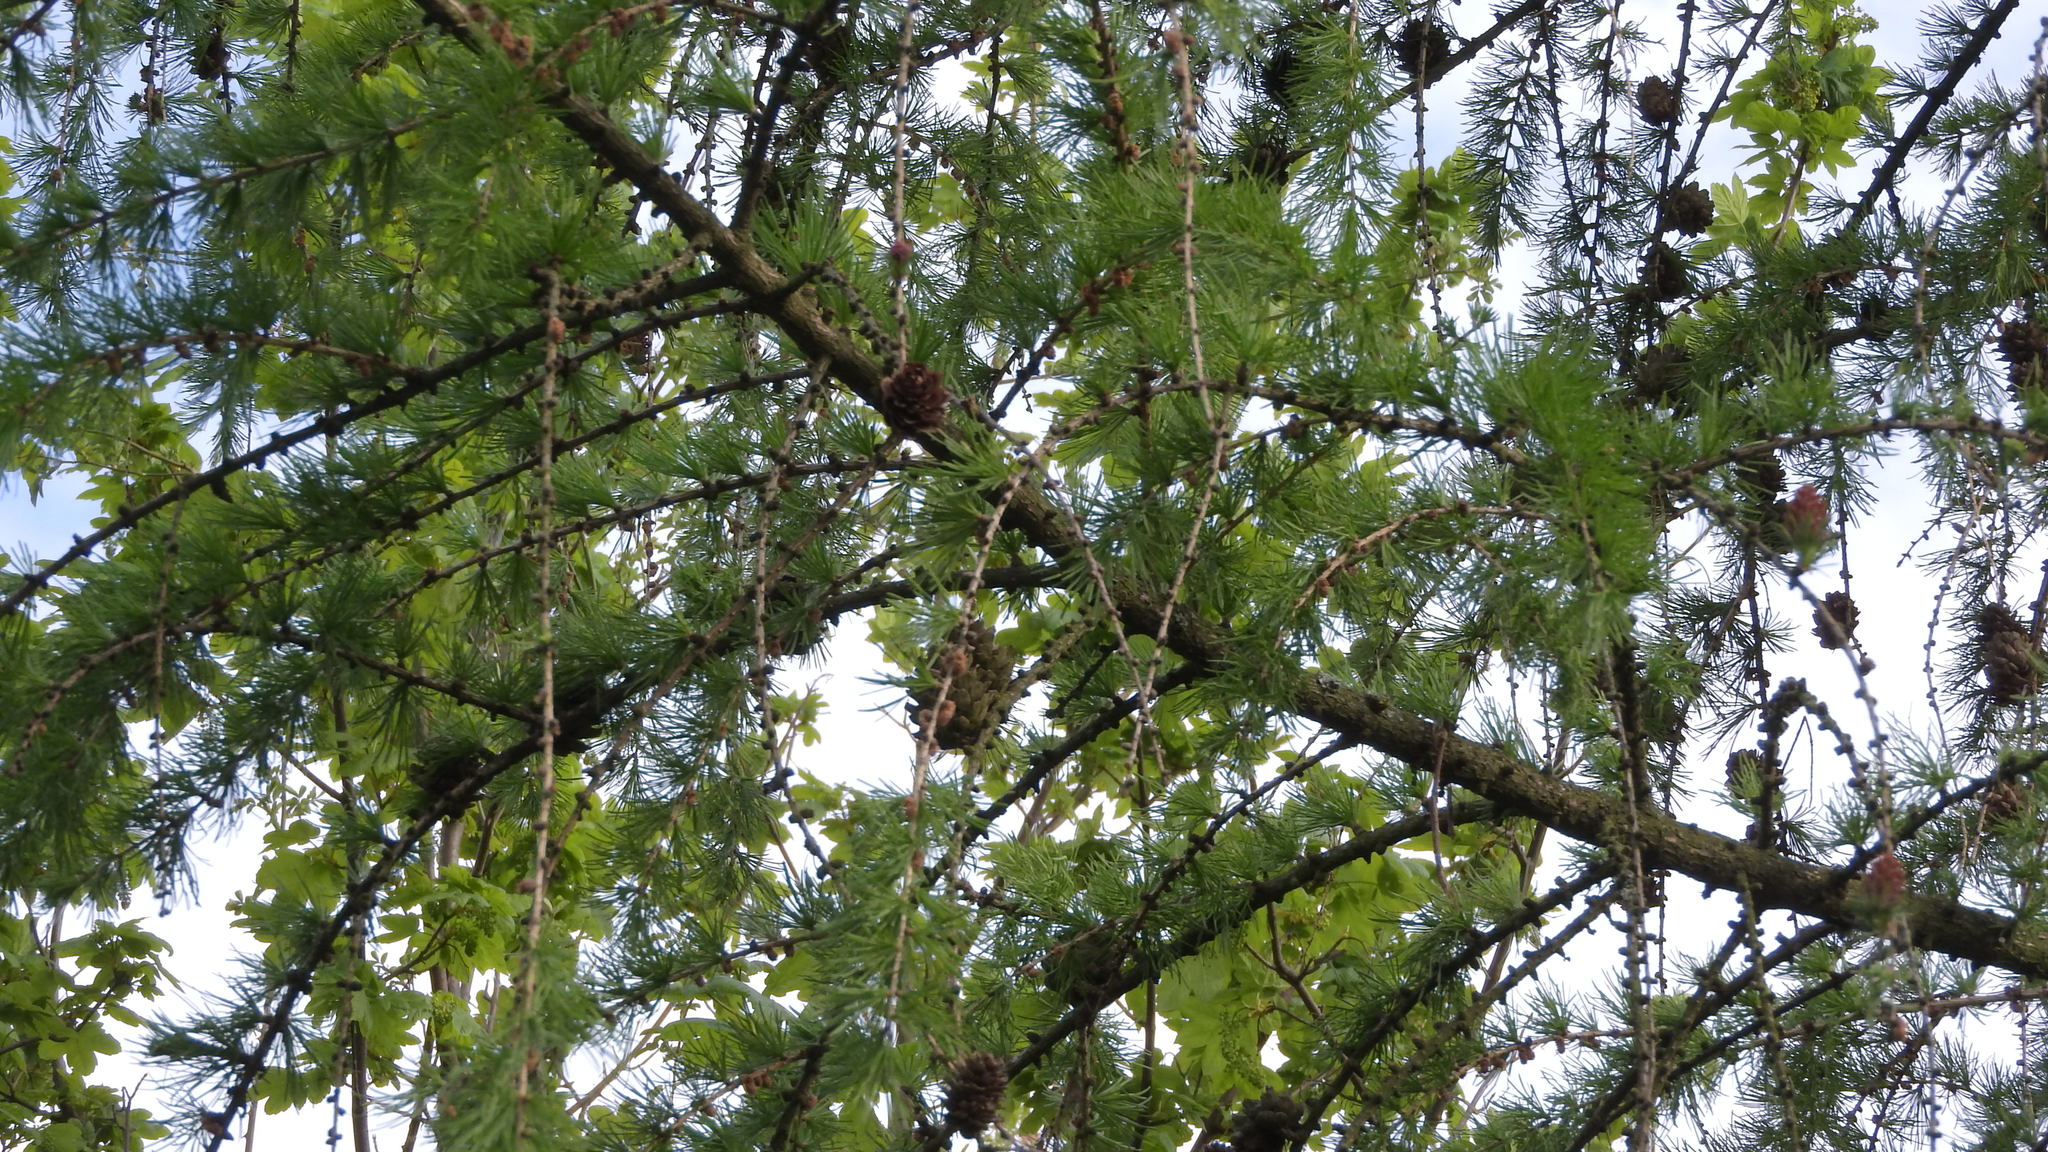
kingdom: Plantae
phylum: Tracheophyta
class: Pinopsida
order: Pinales
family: Pinaceae
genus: Larix
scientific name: Larix decidua
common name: European larch
